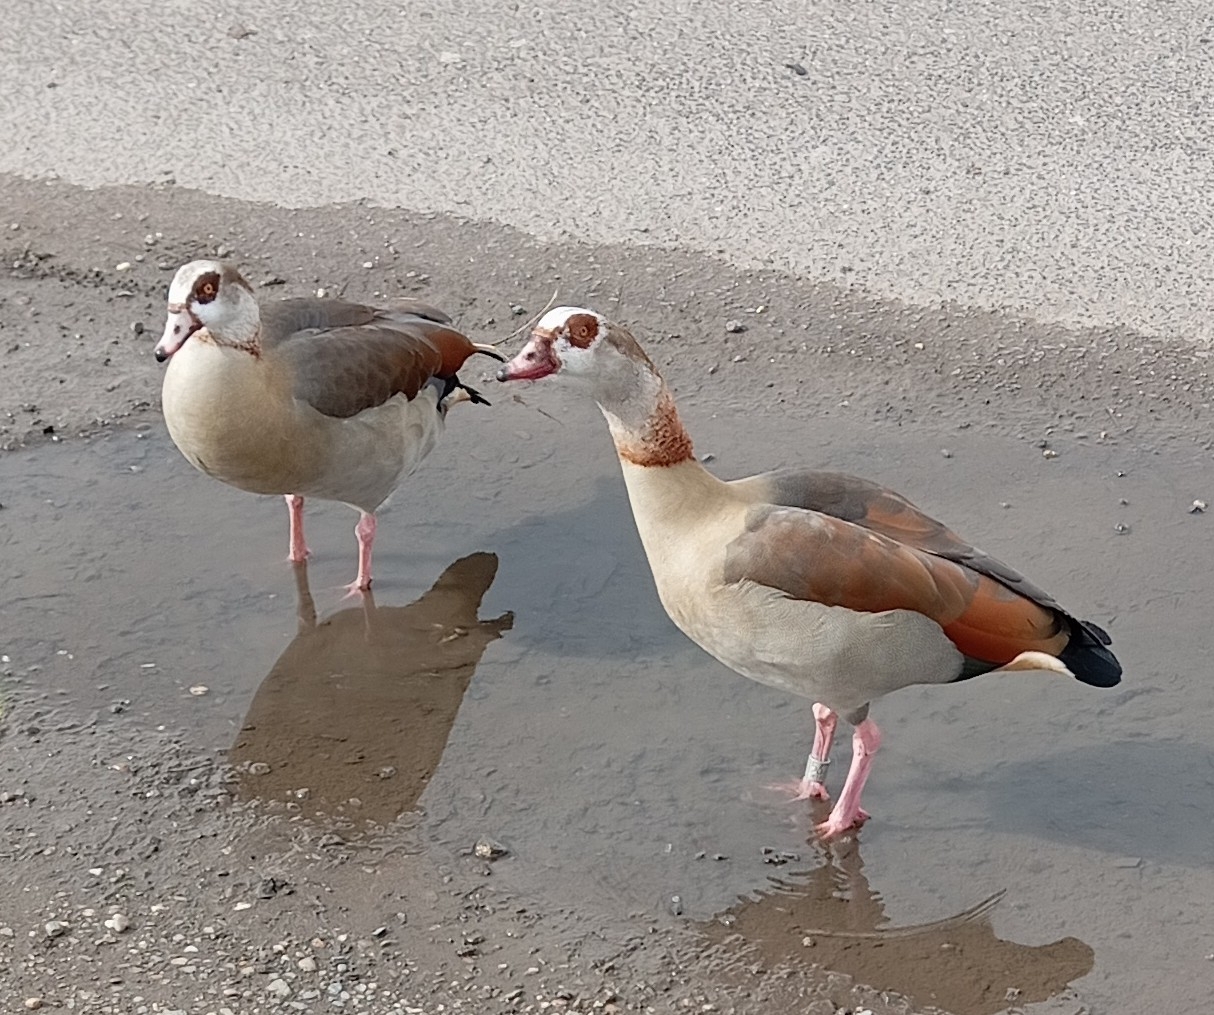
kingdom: Animalia
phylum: Chordata
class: Aves
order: Anseriformes
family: Anatidae
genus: Alopochen
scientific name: Alopochen aegyptiaca
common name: Egyptian goose
